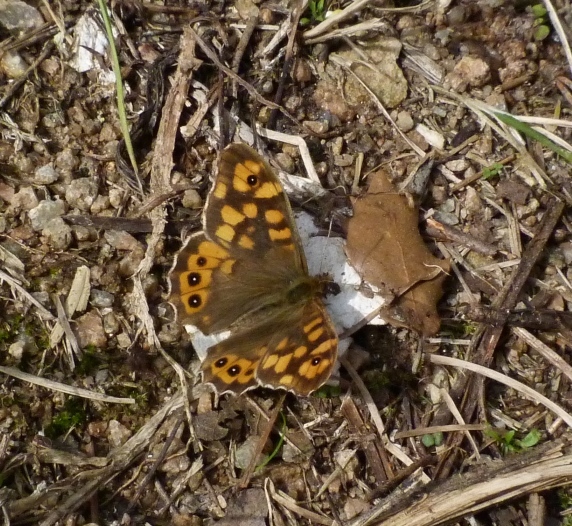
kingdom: Animalia
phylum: Arthropoda
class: Insecta
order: Lepidoptera
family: Nymphalidae
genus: Pararge
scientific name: Pararge aegeria
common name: Speckled wood
